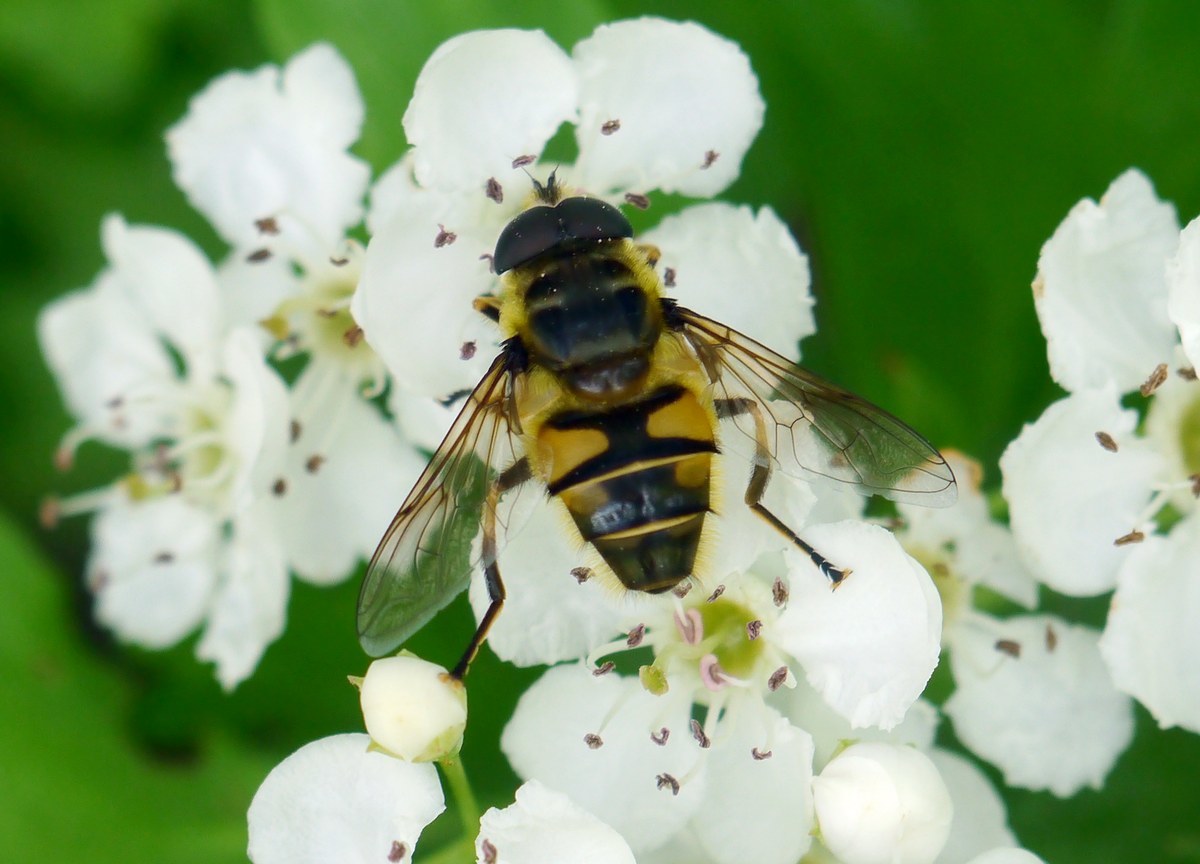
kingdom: Animalia
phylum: Arthropoda
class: Insecta
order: Diptera
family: Syrphidae
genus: Myathropa
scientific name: Myathropa florea
